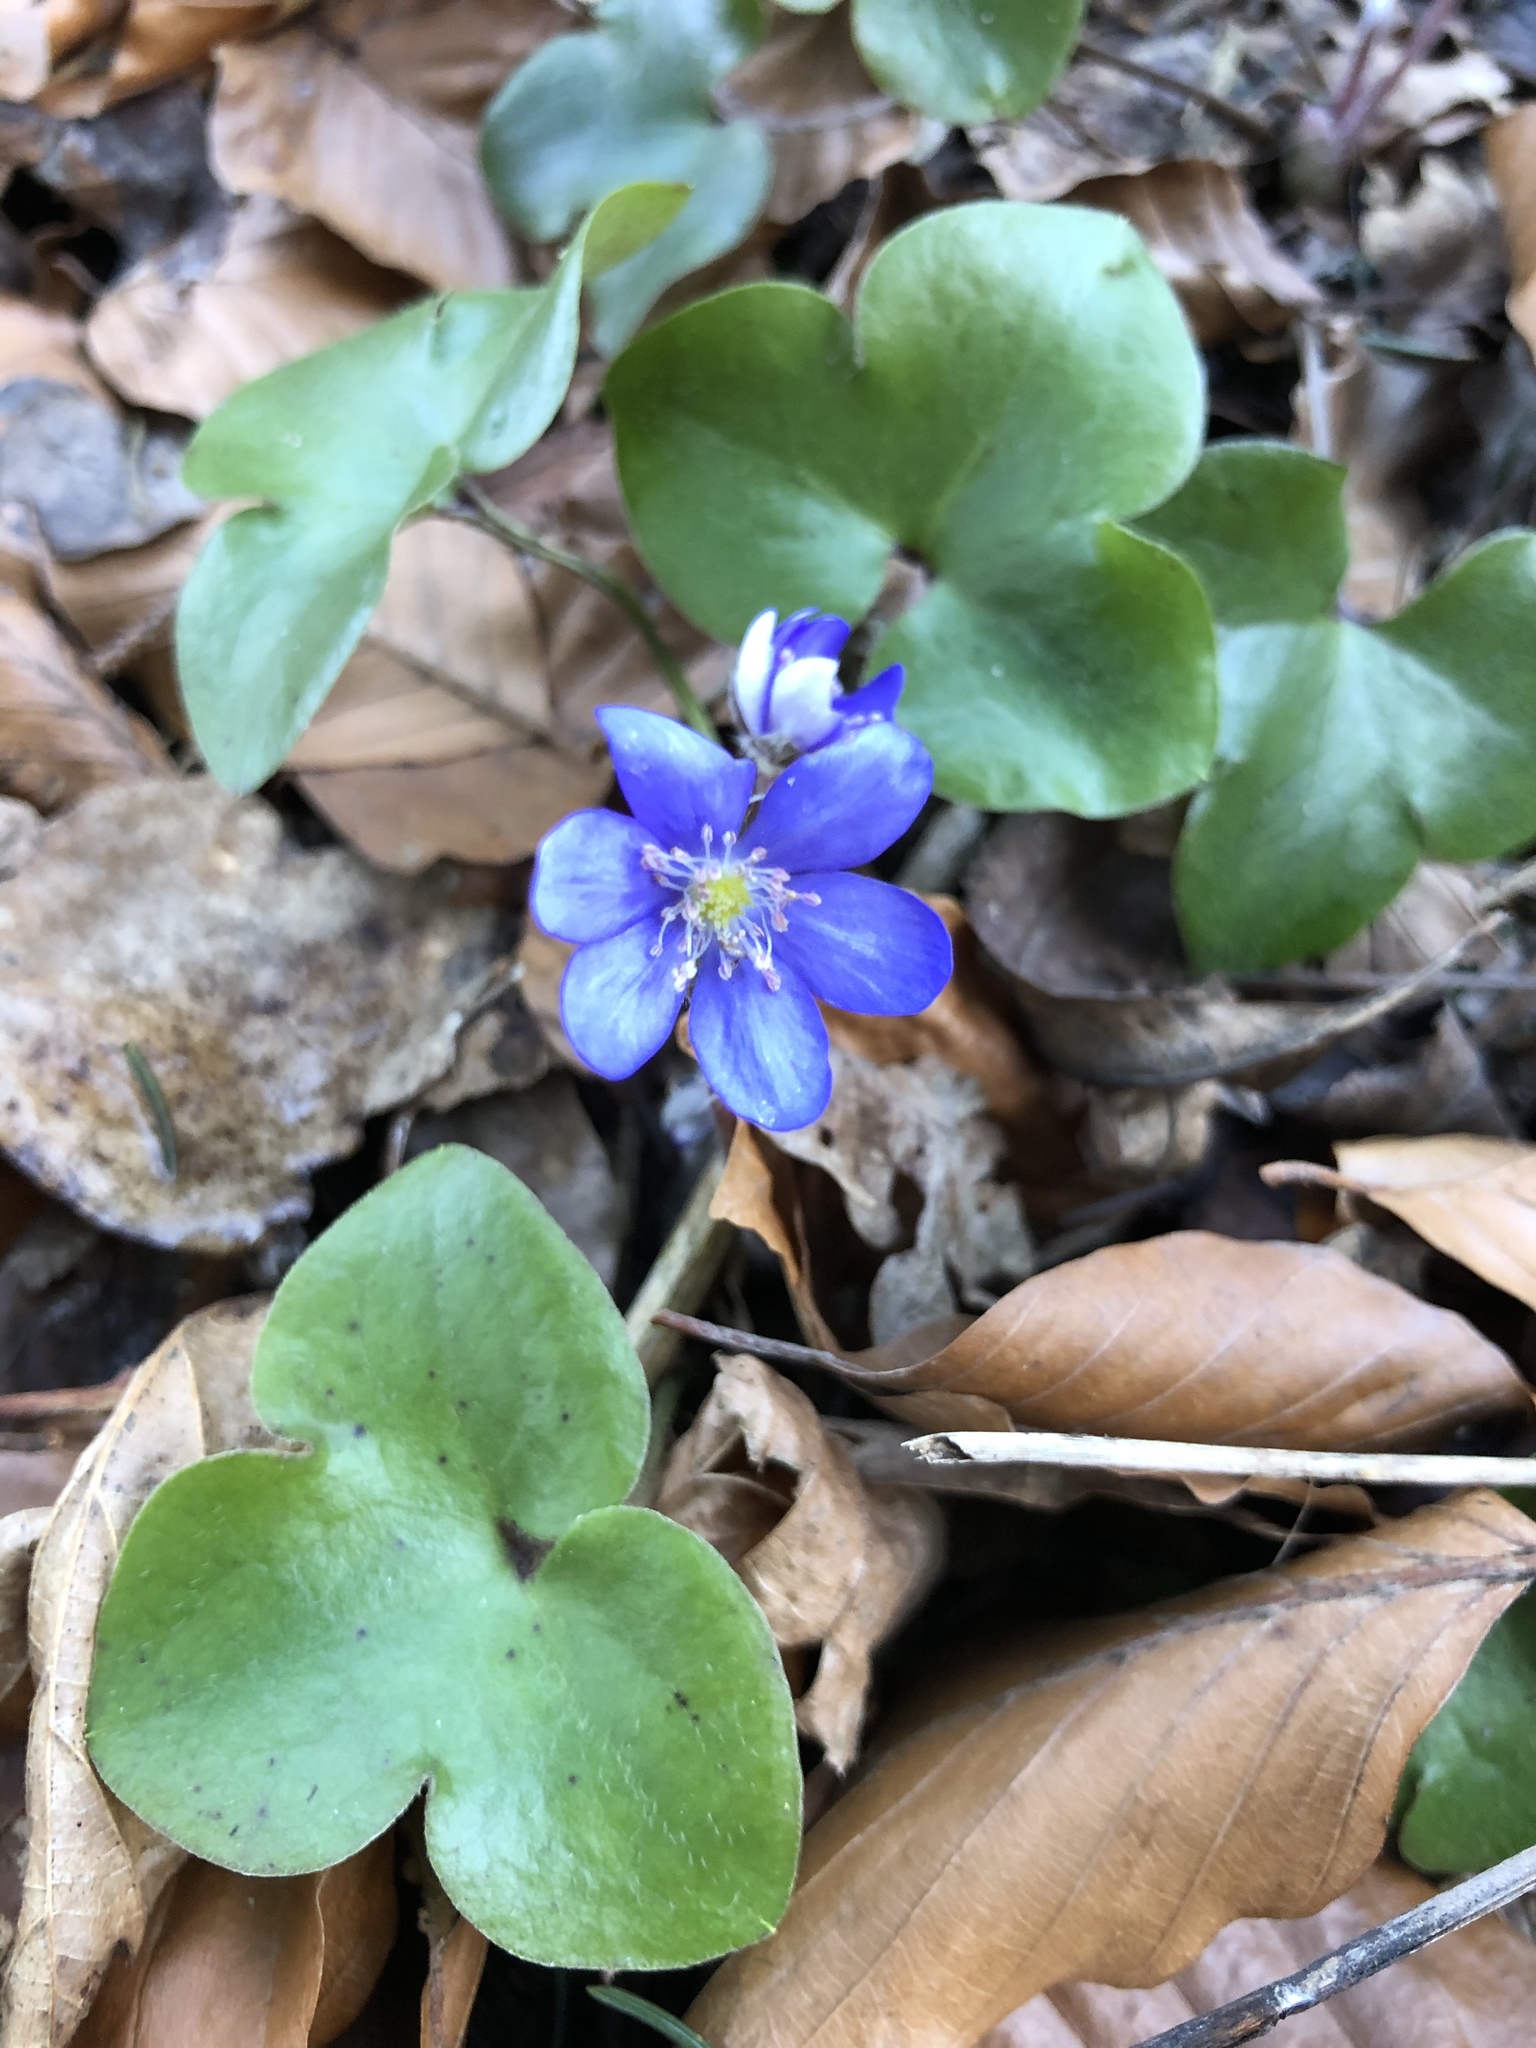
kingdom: Plantae
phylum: Tracheophyta
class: Magnoliopsida
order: Ranunculales
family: Ranunculaceae
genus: Hepatica
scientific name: Hepatica nobilis
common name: Liverleaf
